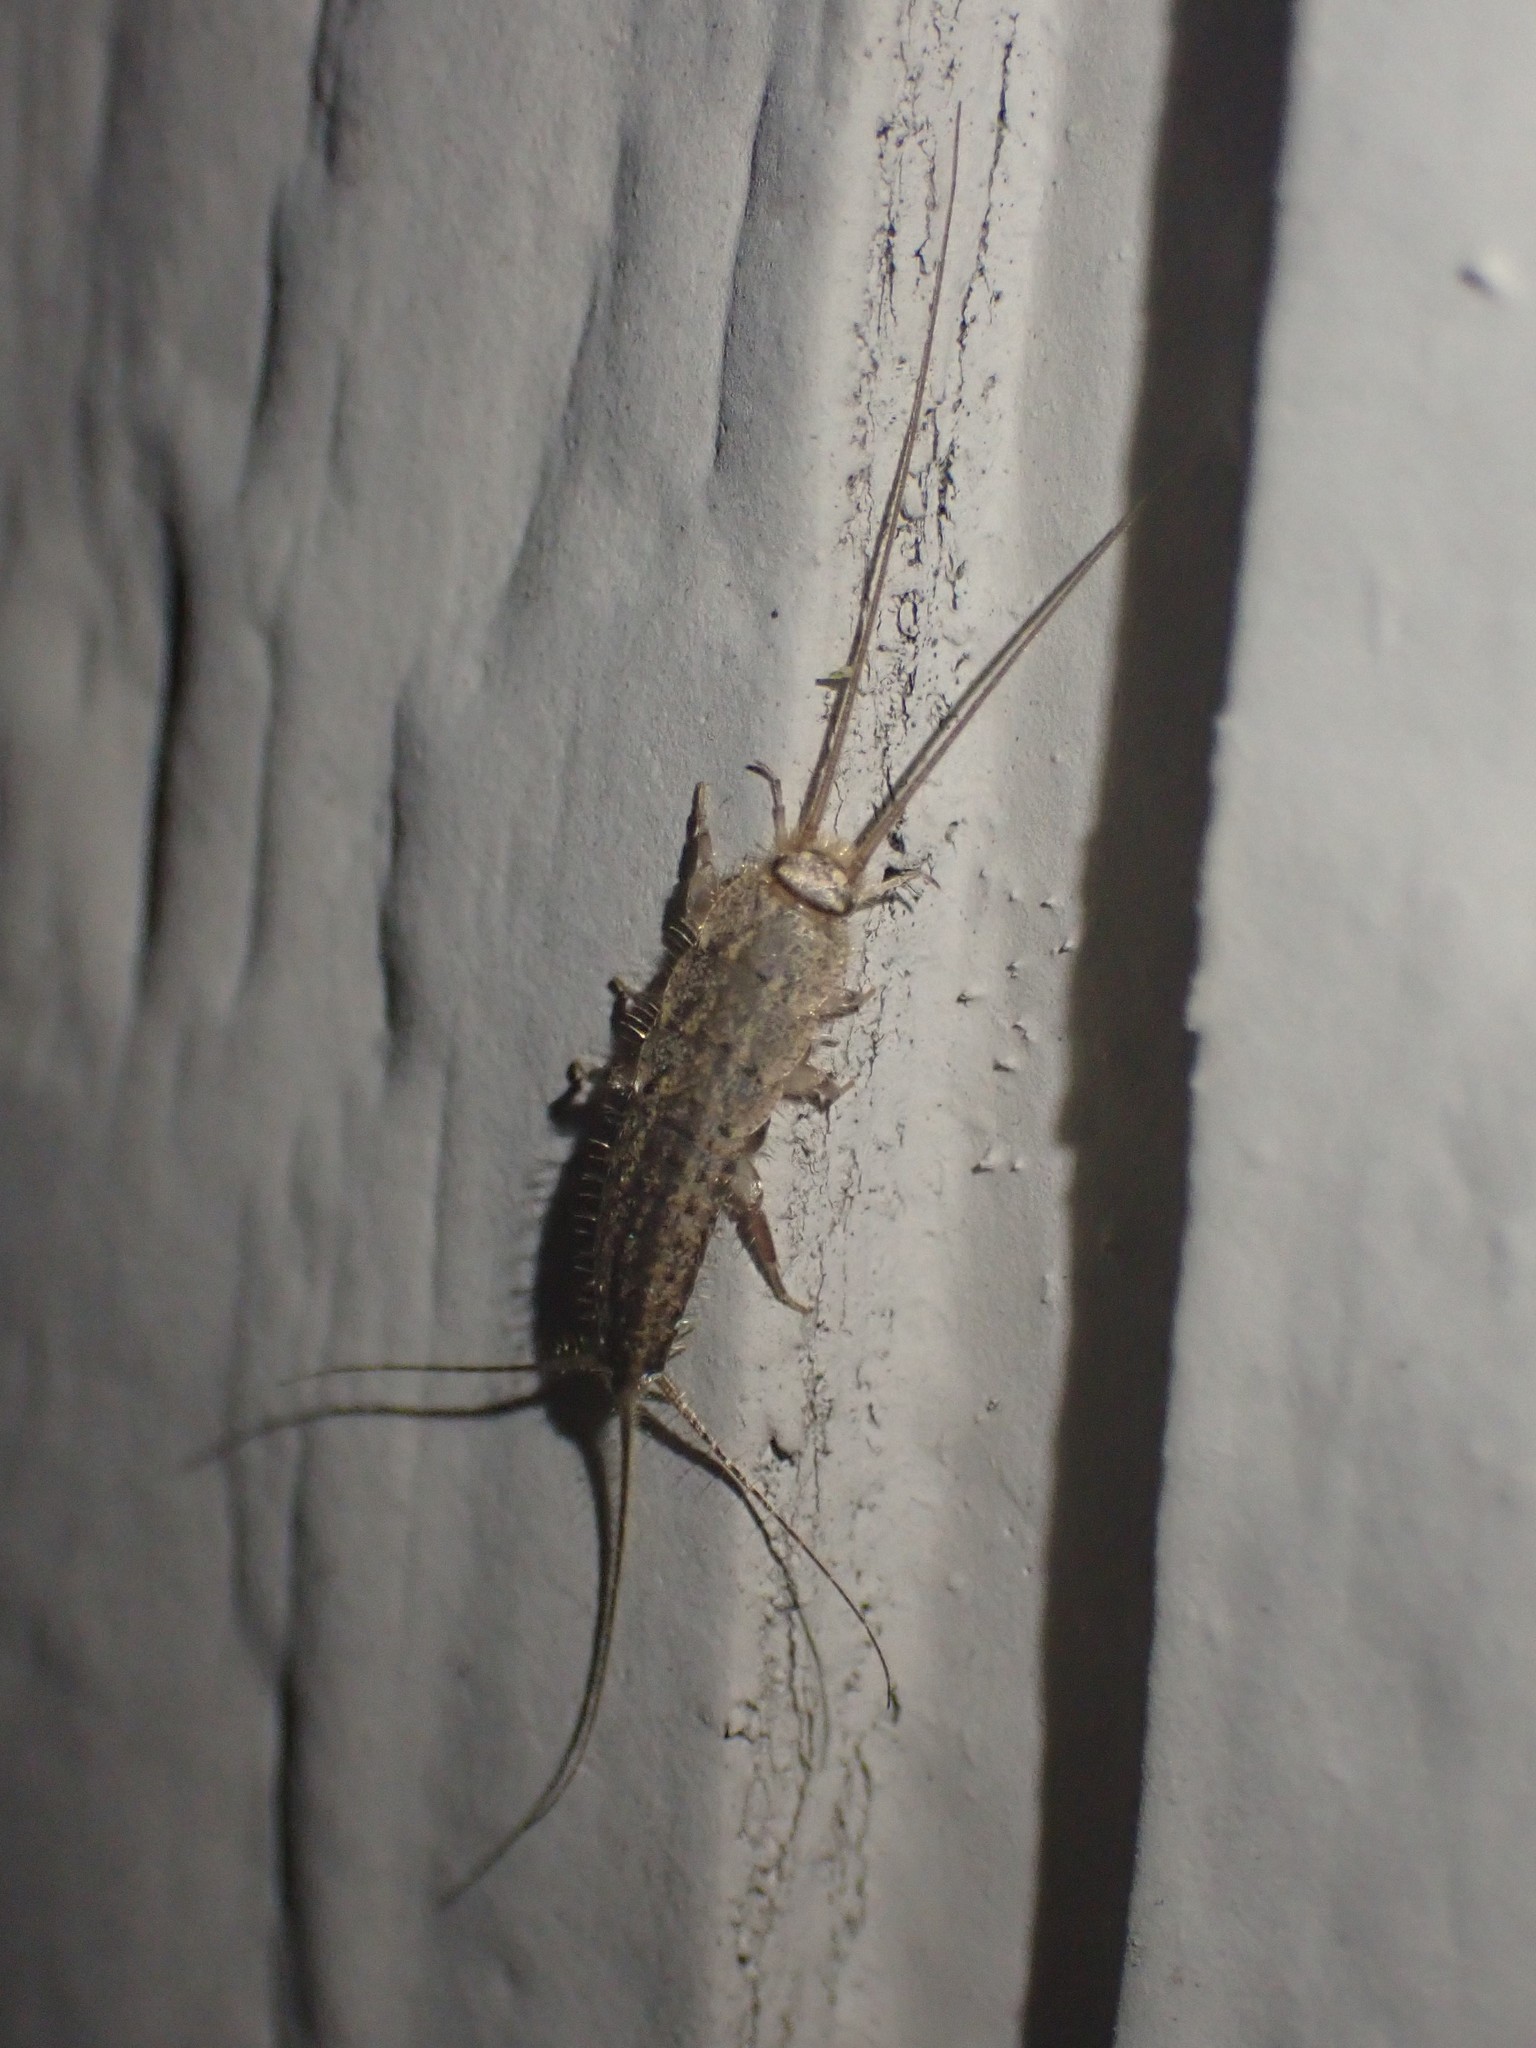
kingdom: Animalia
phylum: Arthropoda
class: Insecta
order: Zygentoma
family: Lepismatidae
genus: Ctenolepisma
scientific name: Ctenolepisma lineata
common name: Four-lined silverfish
